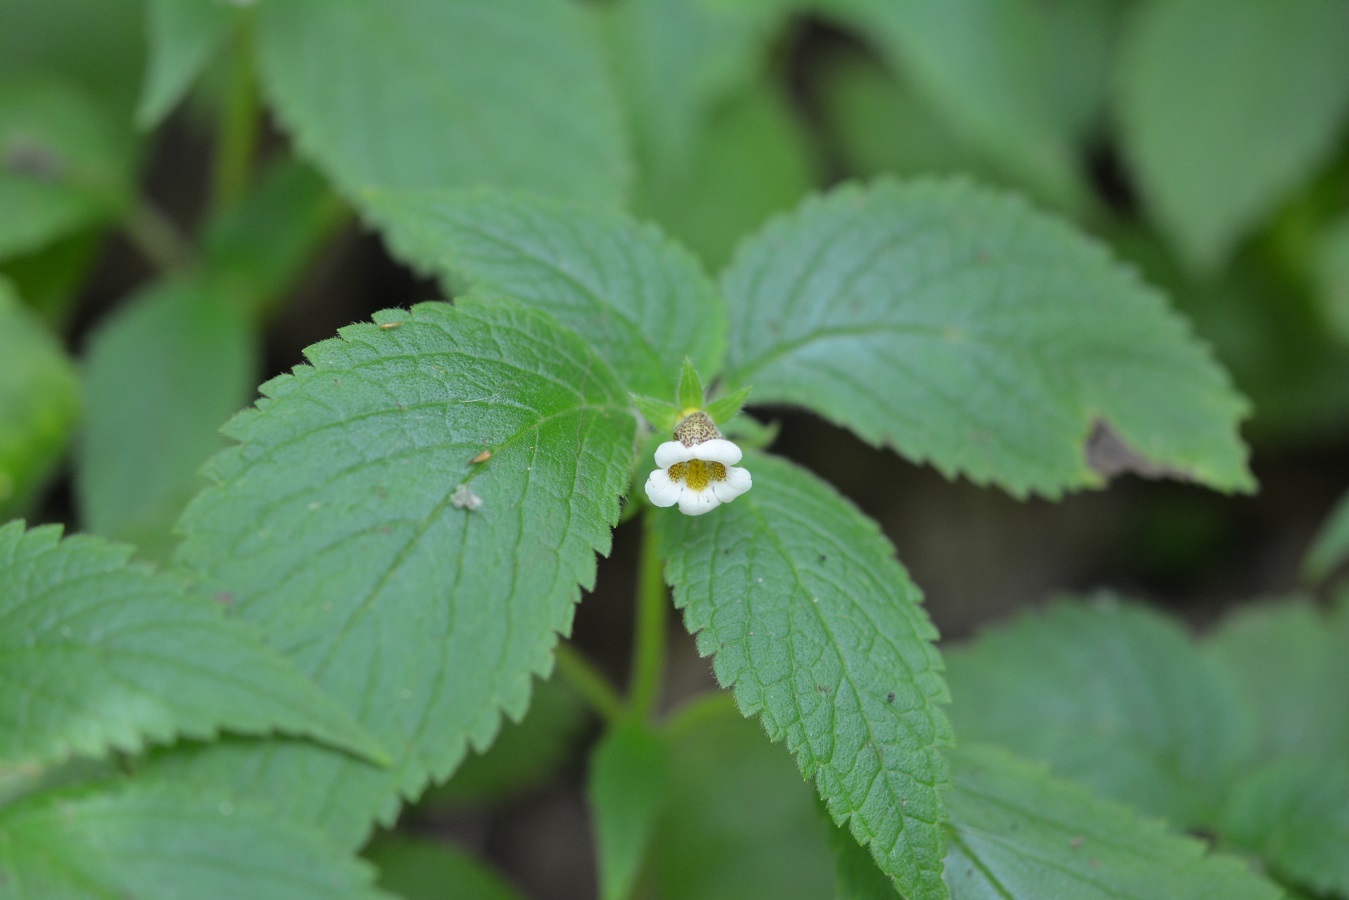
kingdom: Plantae
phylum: Tracheophyta
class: Magnoliopsida
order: Lamiales
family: Gesneriaceae
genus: Achimenes
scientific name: Achimenes misera
